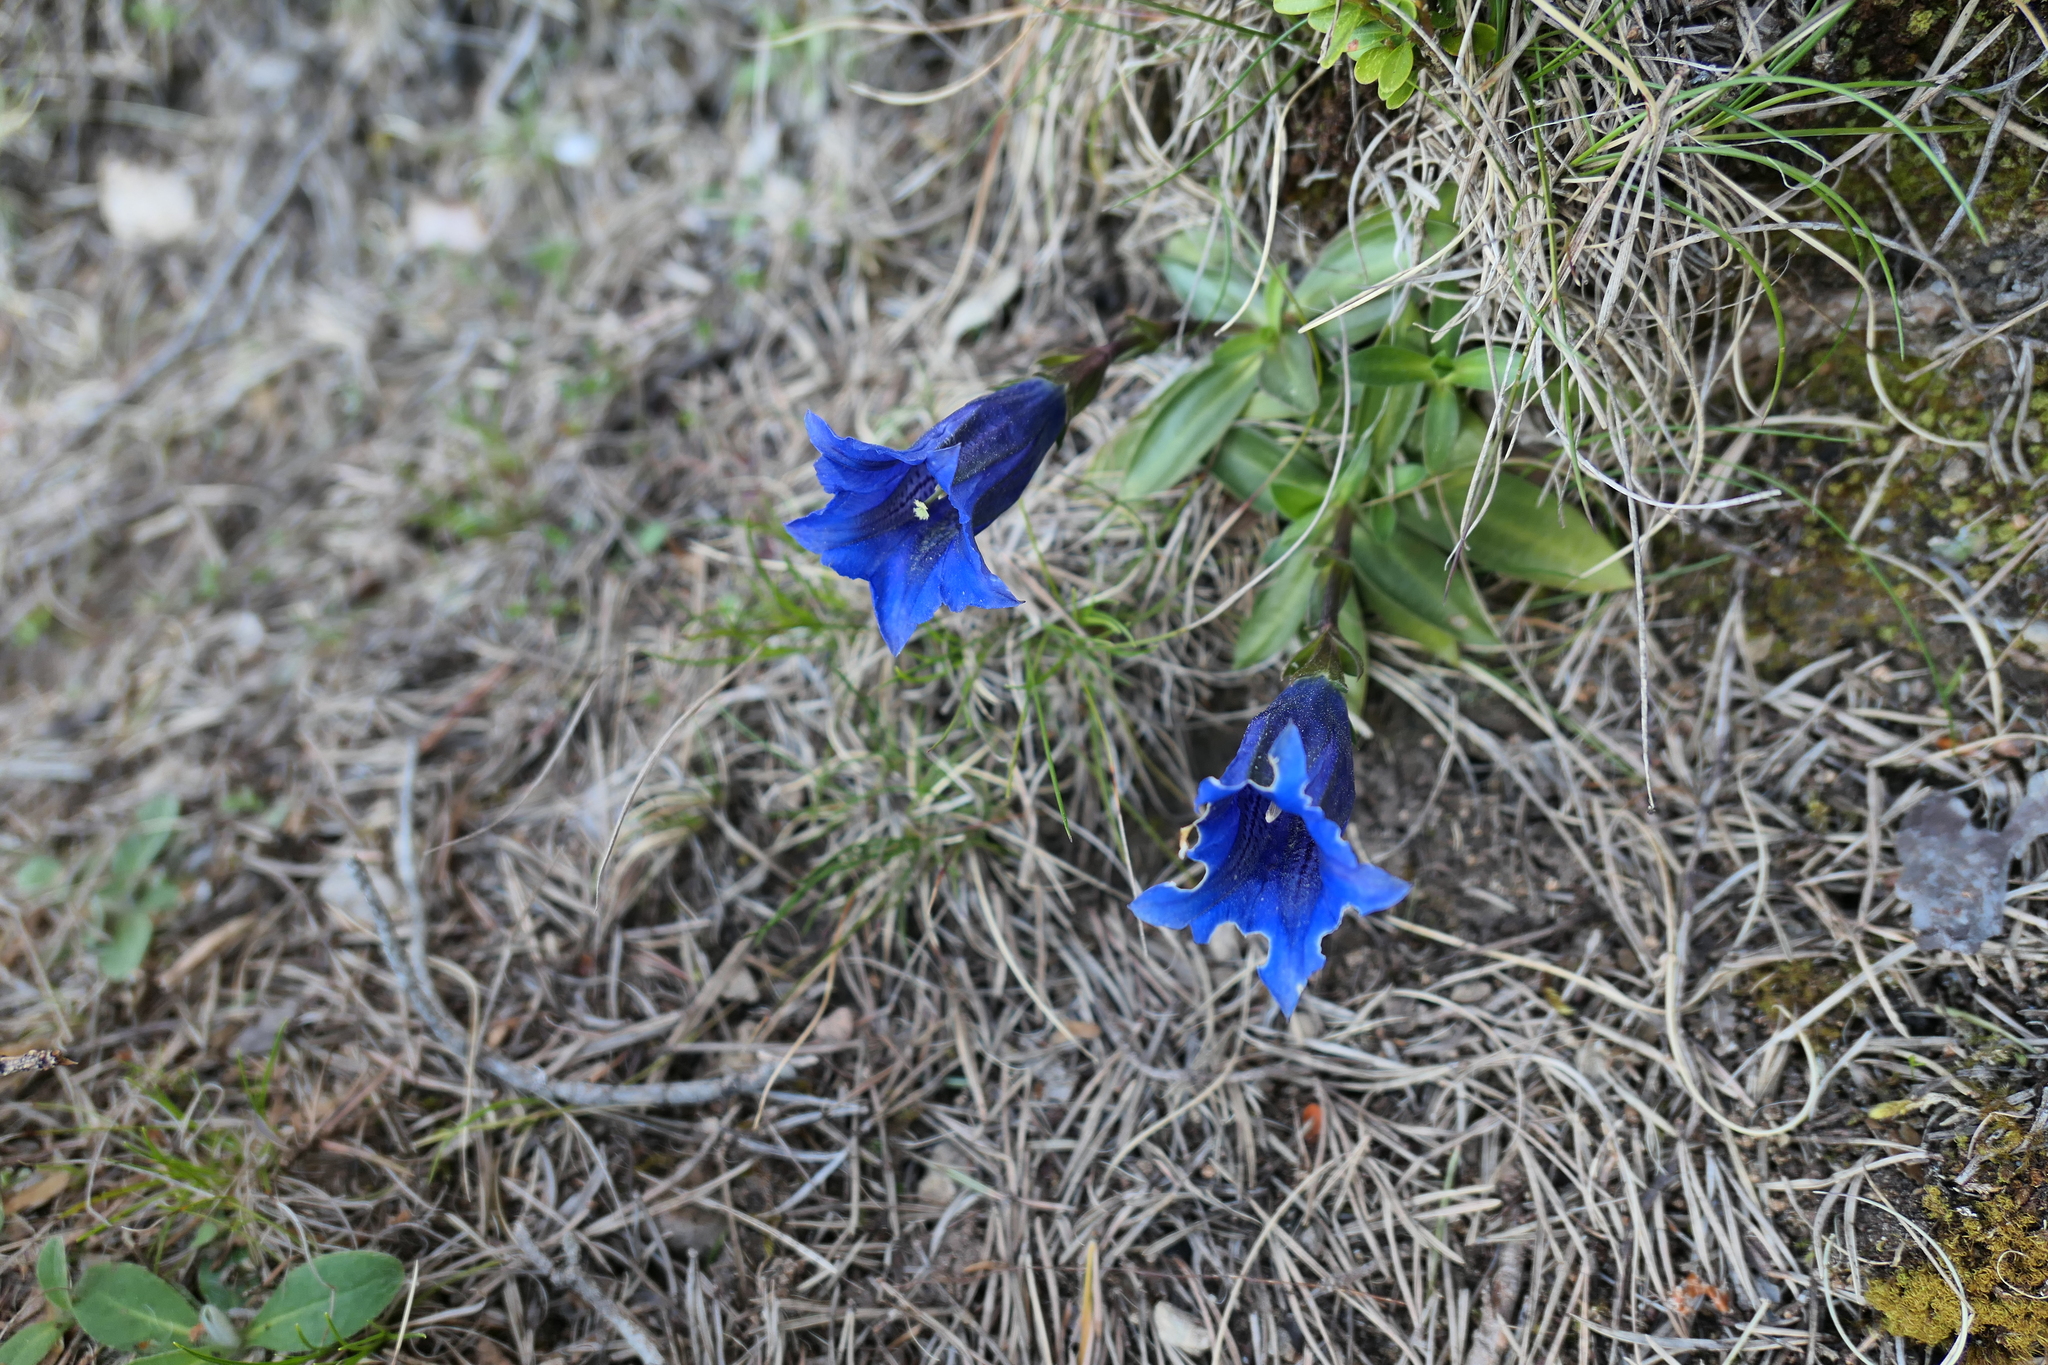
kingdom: Plantae
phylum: Tracheophyta
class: Magnoliopsida
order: Gentianales
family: Gentianaceae
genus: Gentiana
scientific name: Gentiana clusii
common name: Trumpet gentian
